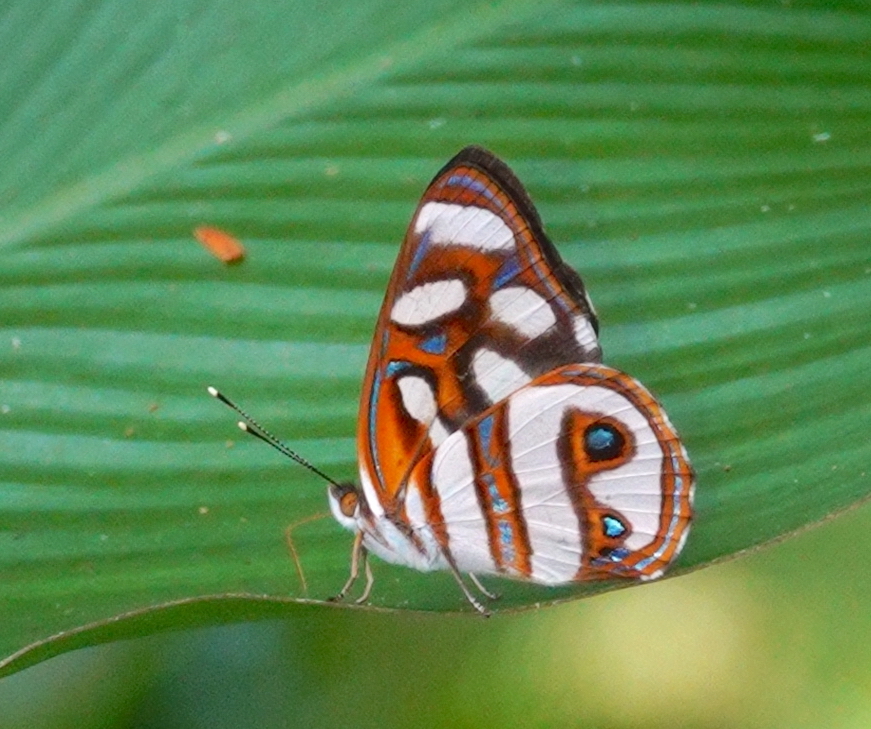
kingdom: Animalia
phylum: Arthropoda
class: Insecta
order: Lepidoptera
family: Nymphalidae
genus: Dynamine
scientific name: Dynamine aerata
